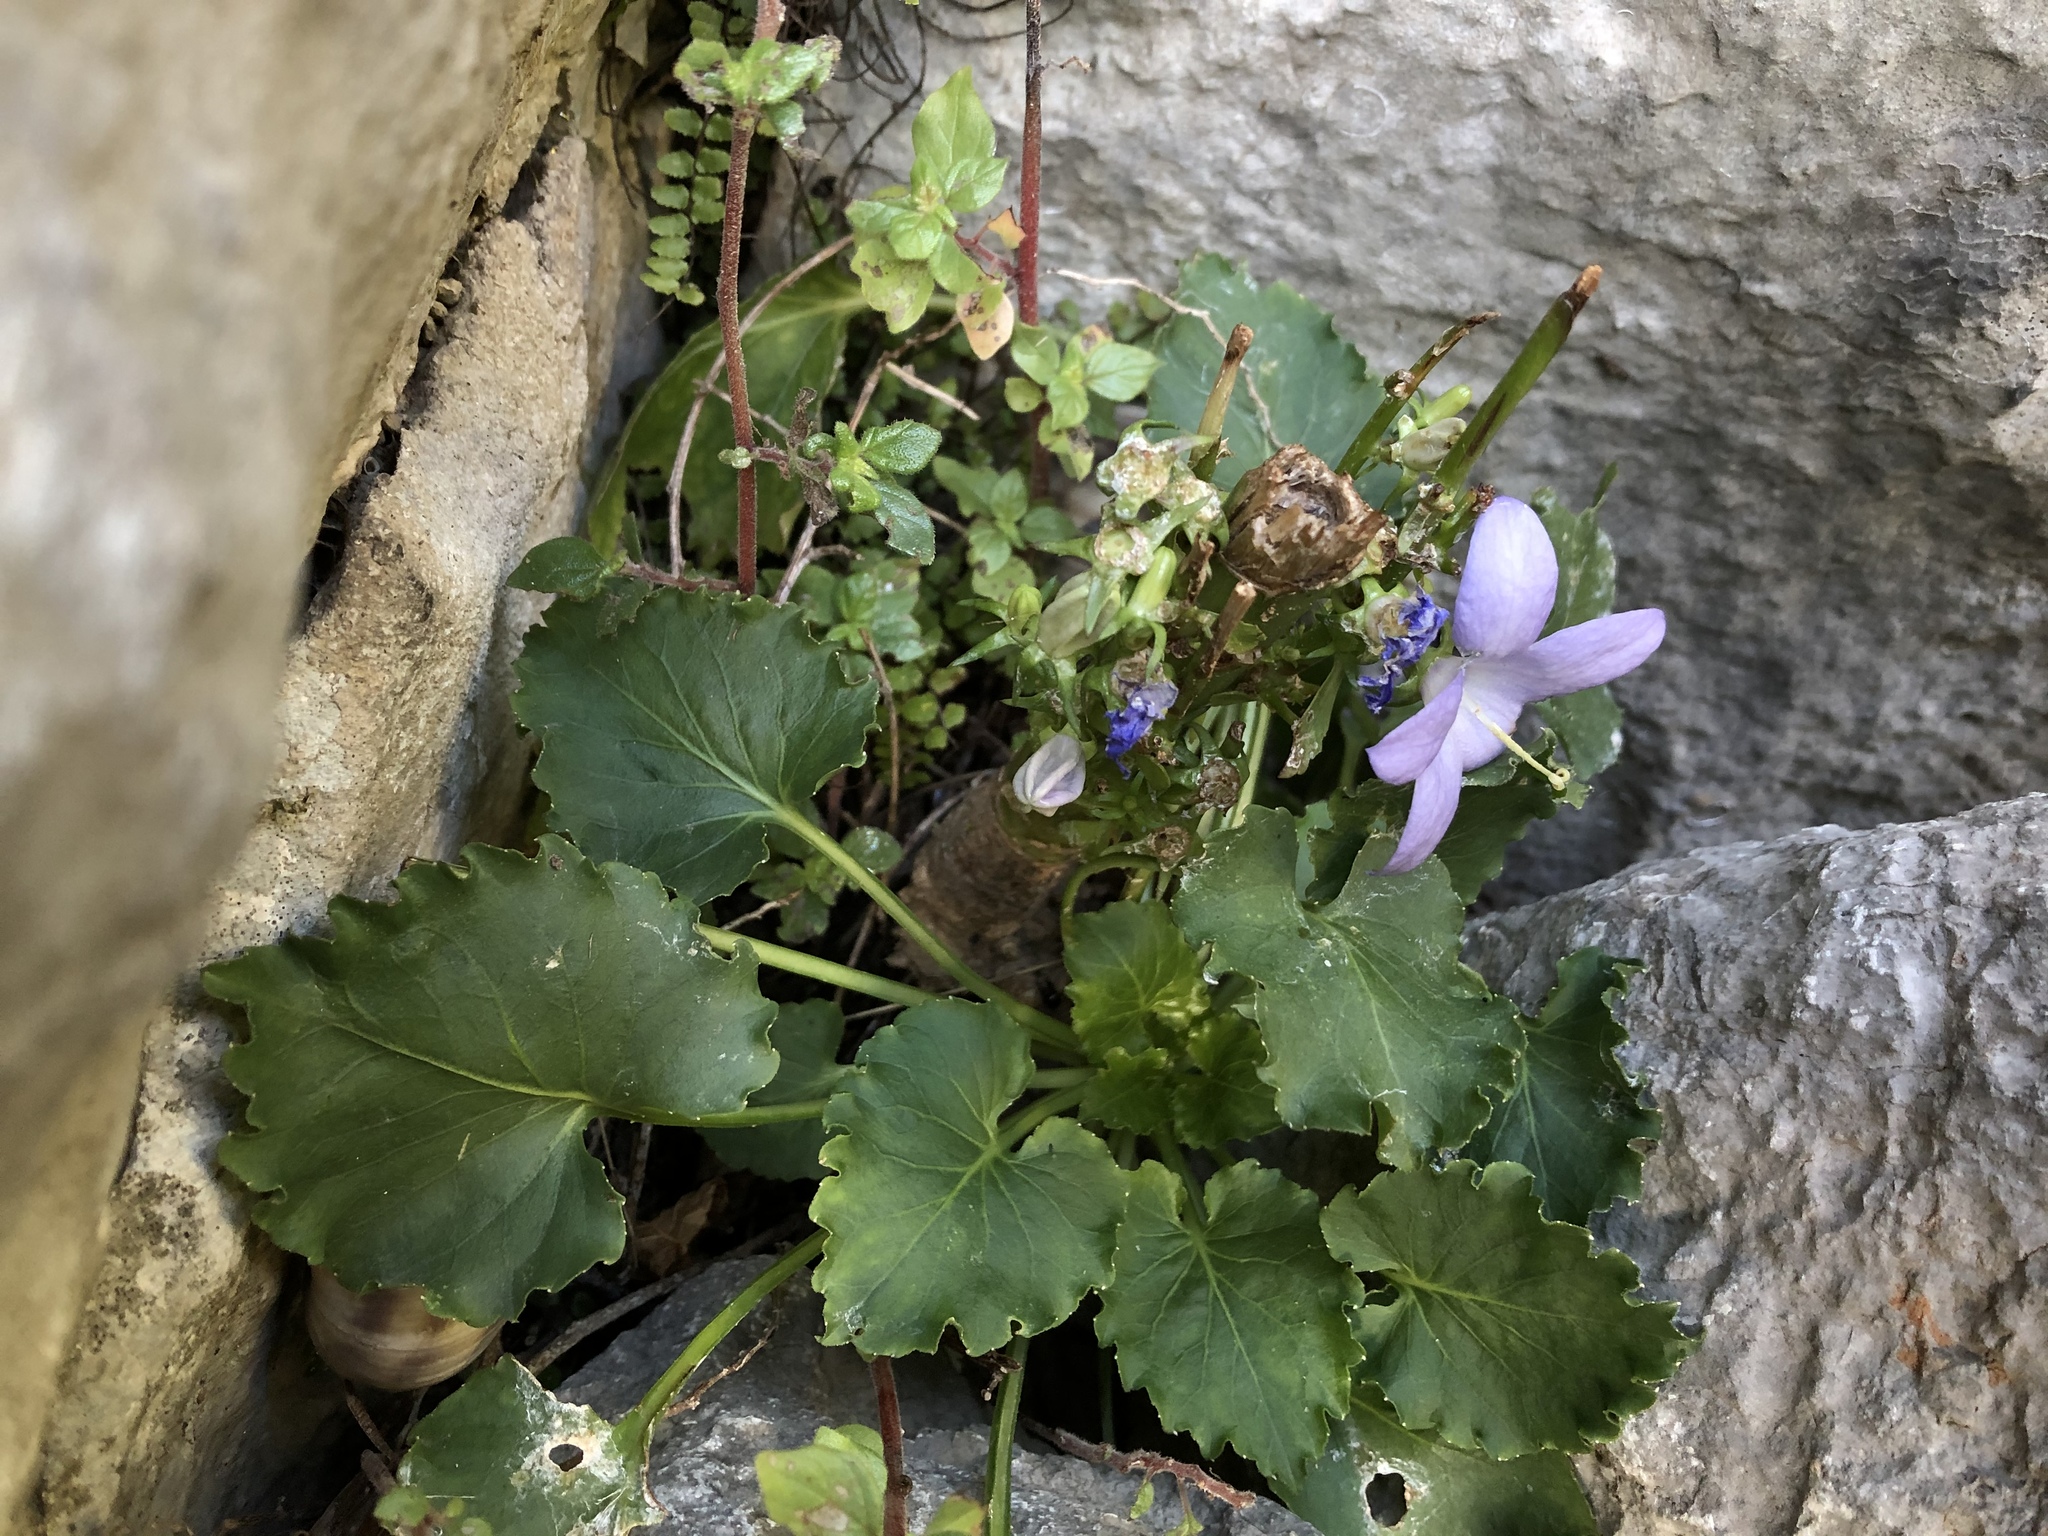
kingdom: Plantae
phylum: Tracheophyta
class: Magnoliopsida
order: Asterales
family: Campanulaceae
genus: Campanula
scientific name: Campanula pyramidalis
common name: Chimney bellflower
